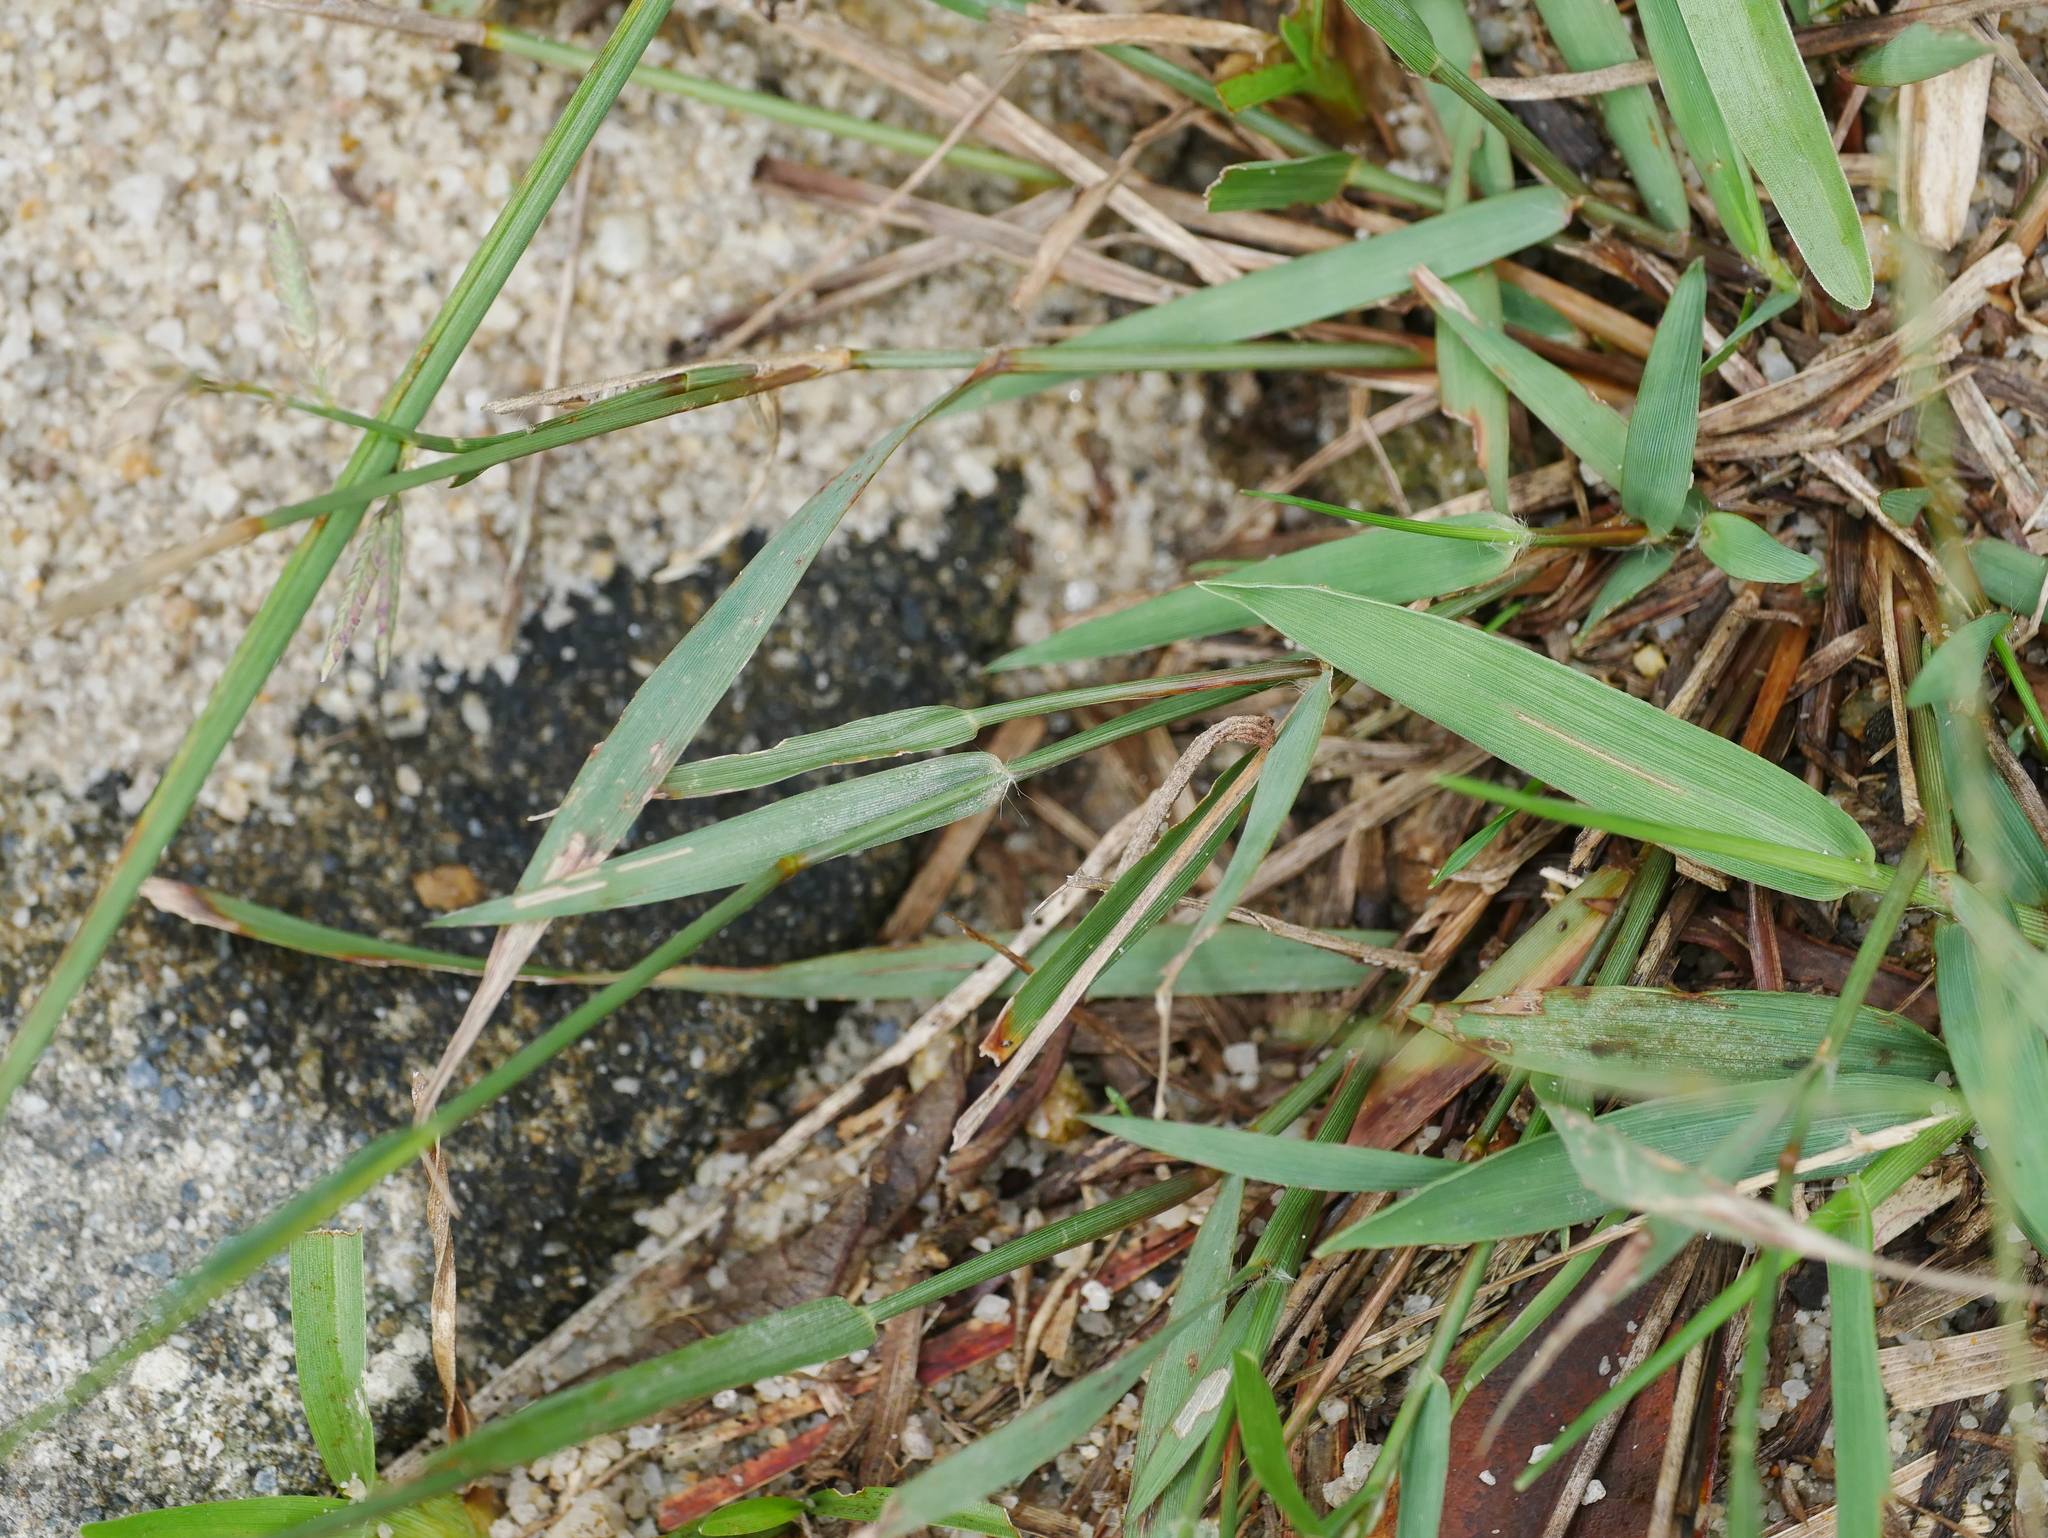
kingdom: Plantae
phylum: Tracheophyta
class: Liliopsida
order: Poales
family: Poaceae
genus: Eragrostis
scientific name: Eragrostis cumingii
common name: Cuming's lovegrass
